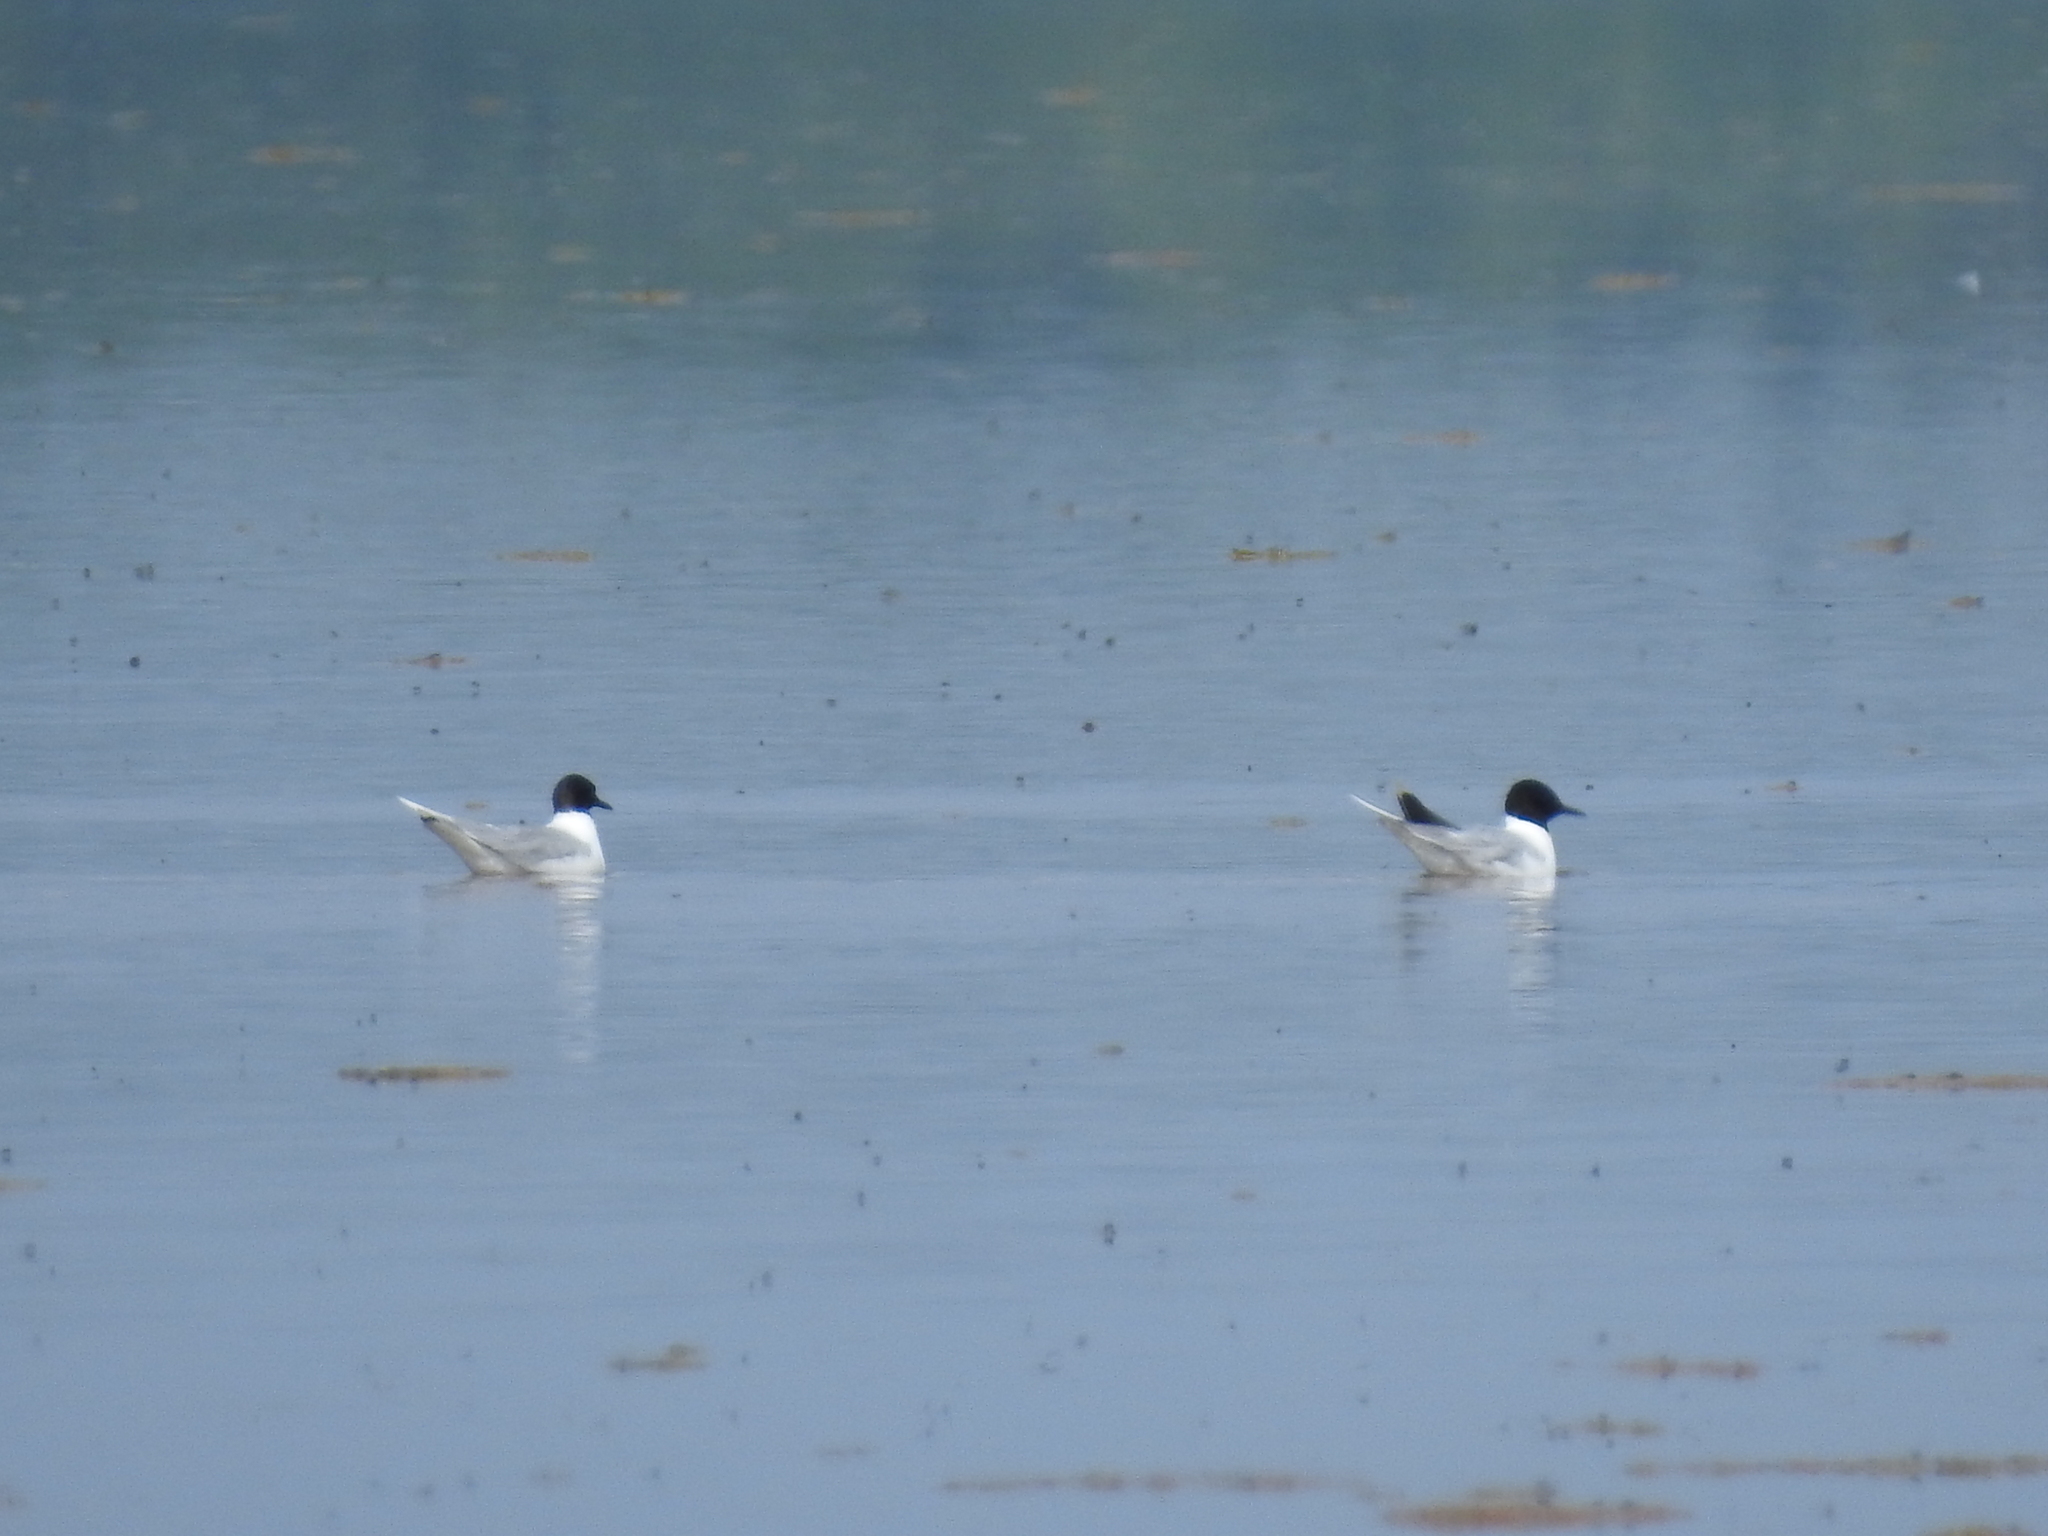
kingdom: Animalia
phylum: Chordata
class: Aves
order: Charadriiformes
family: Laridae
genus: Hydrocoloeus
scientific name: Hydrocoloeus minutus
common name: Little gull
